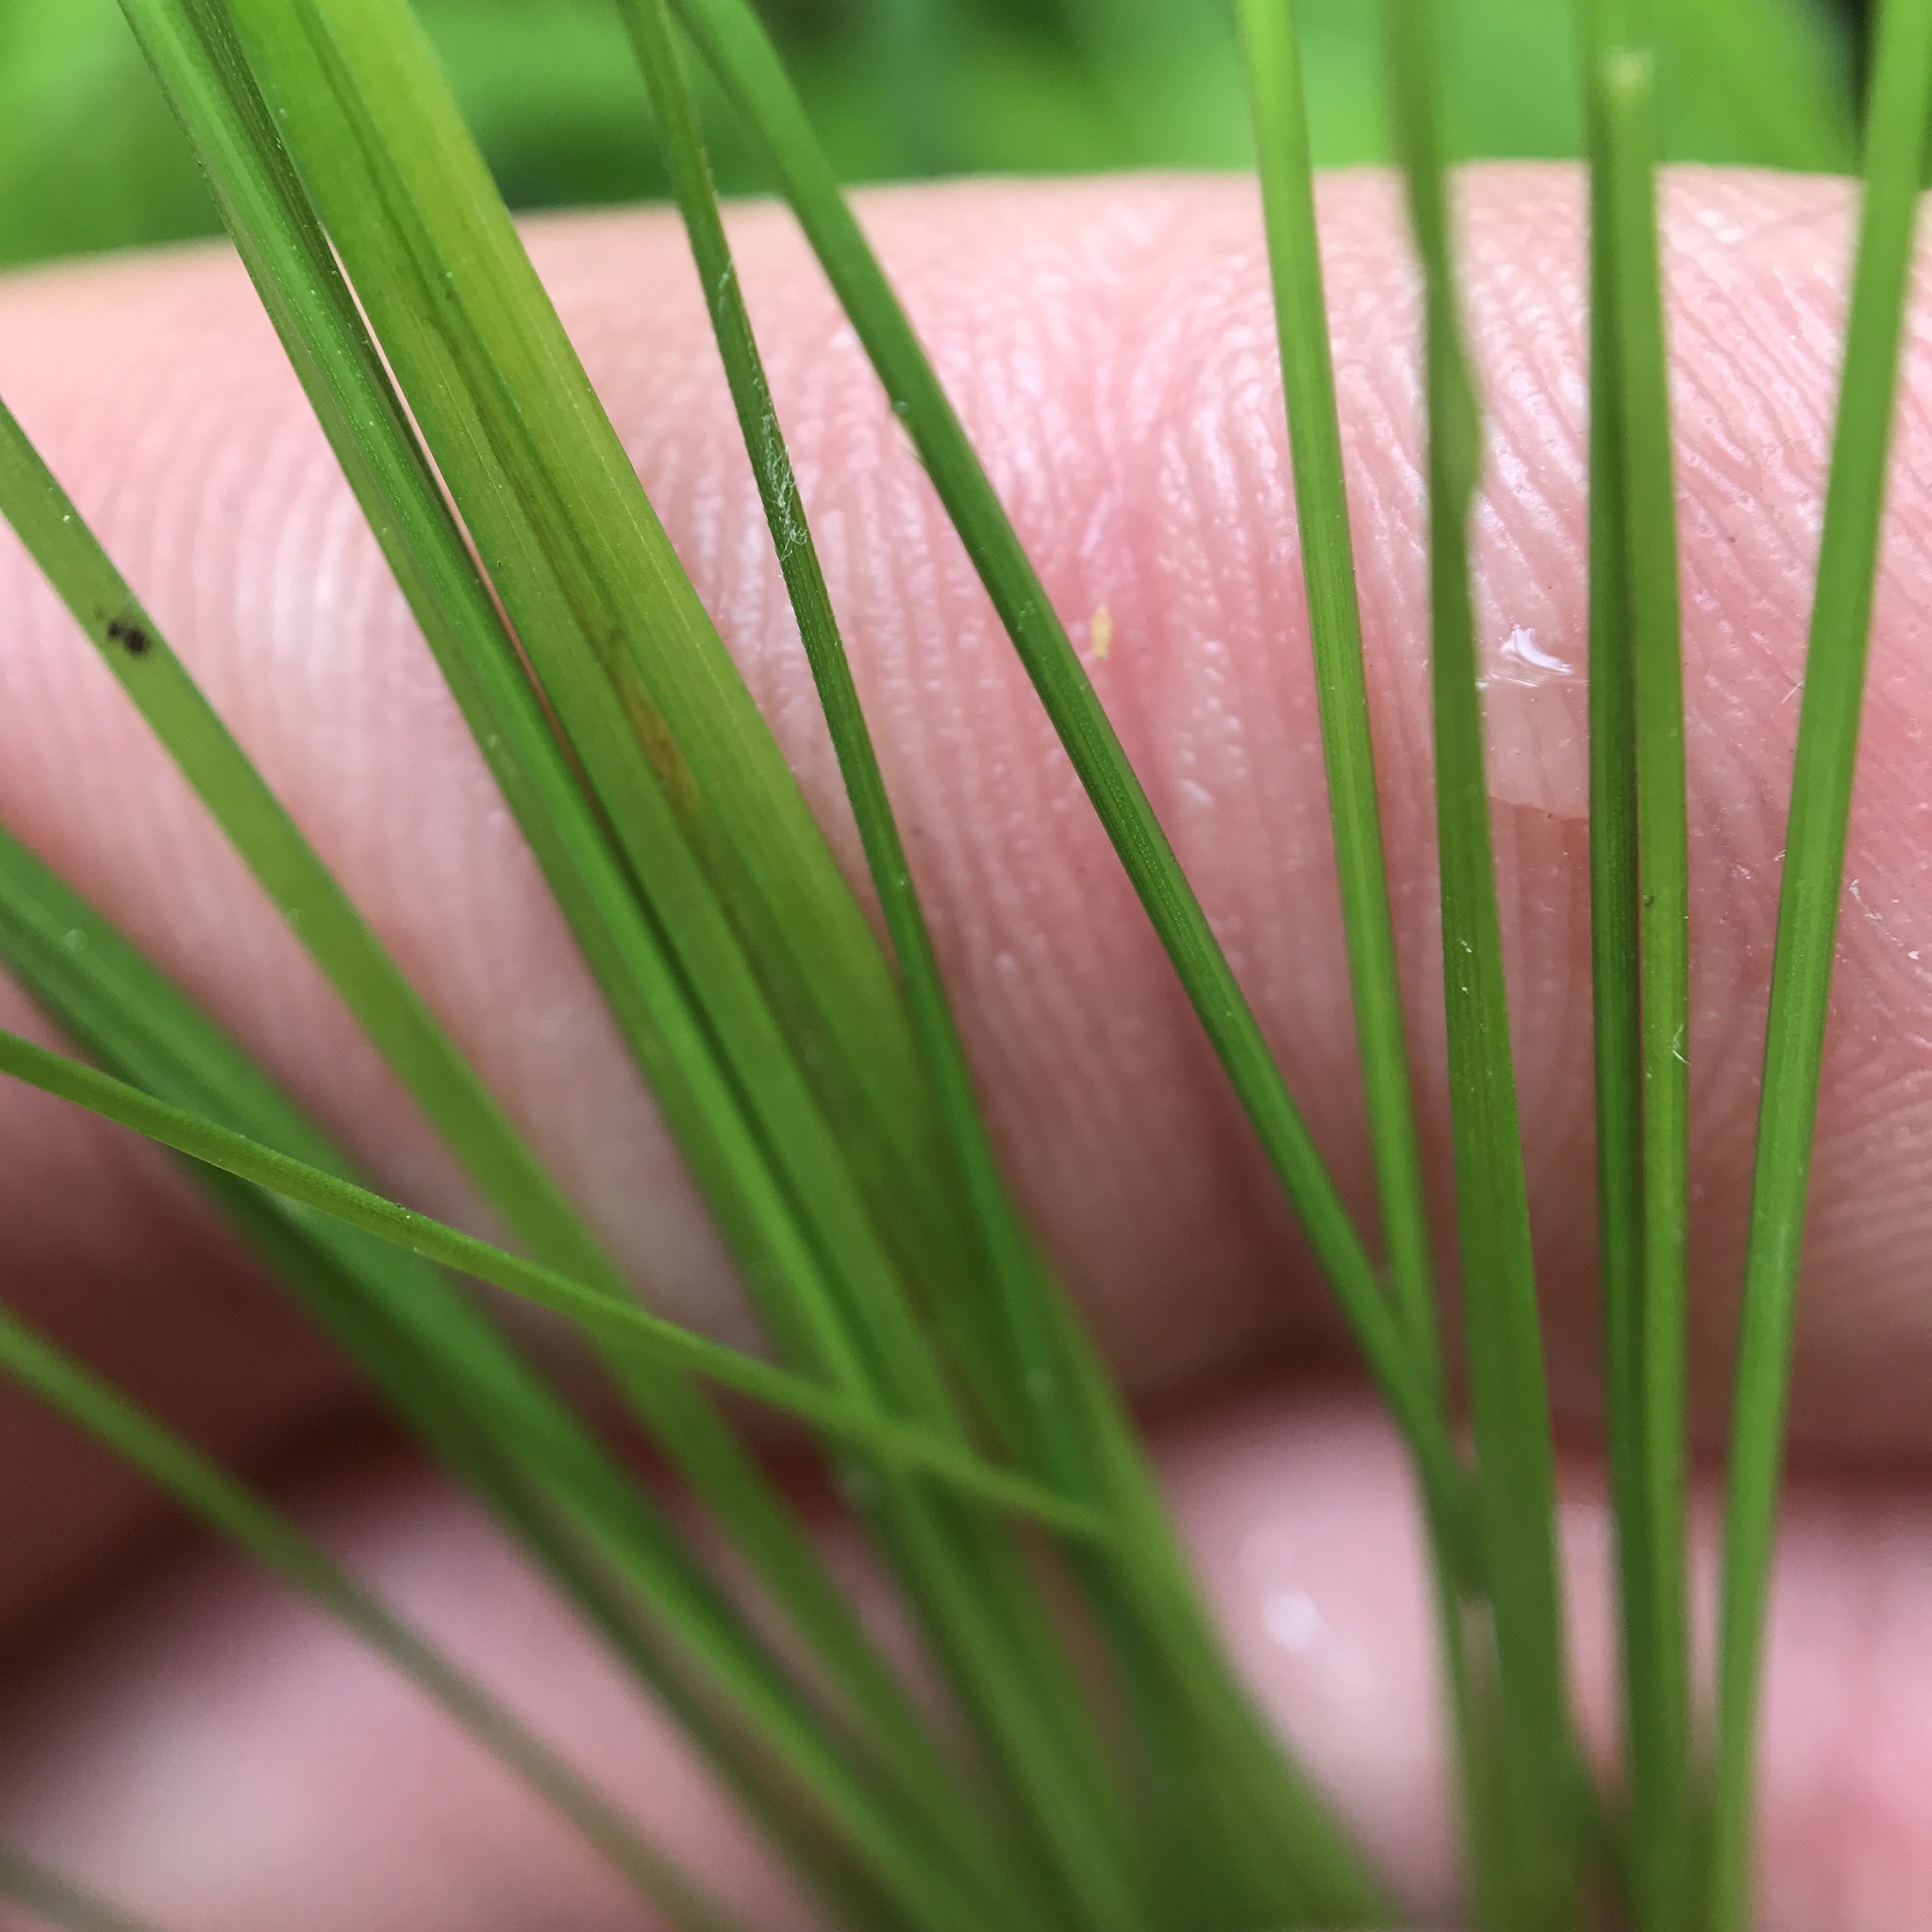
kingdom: Plantae
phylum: Tracheophyta
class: Liliopsida
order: Poales
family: Cyperaceae
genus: Carex
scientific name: Carex interior
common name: Inland sedge
